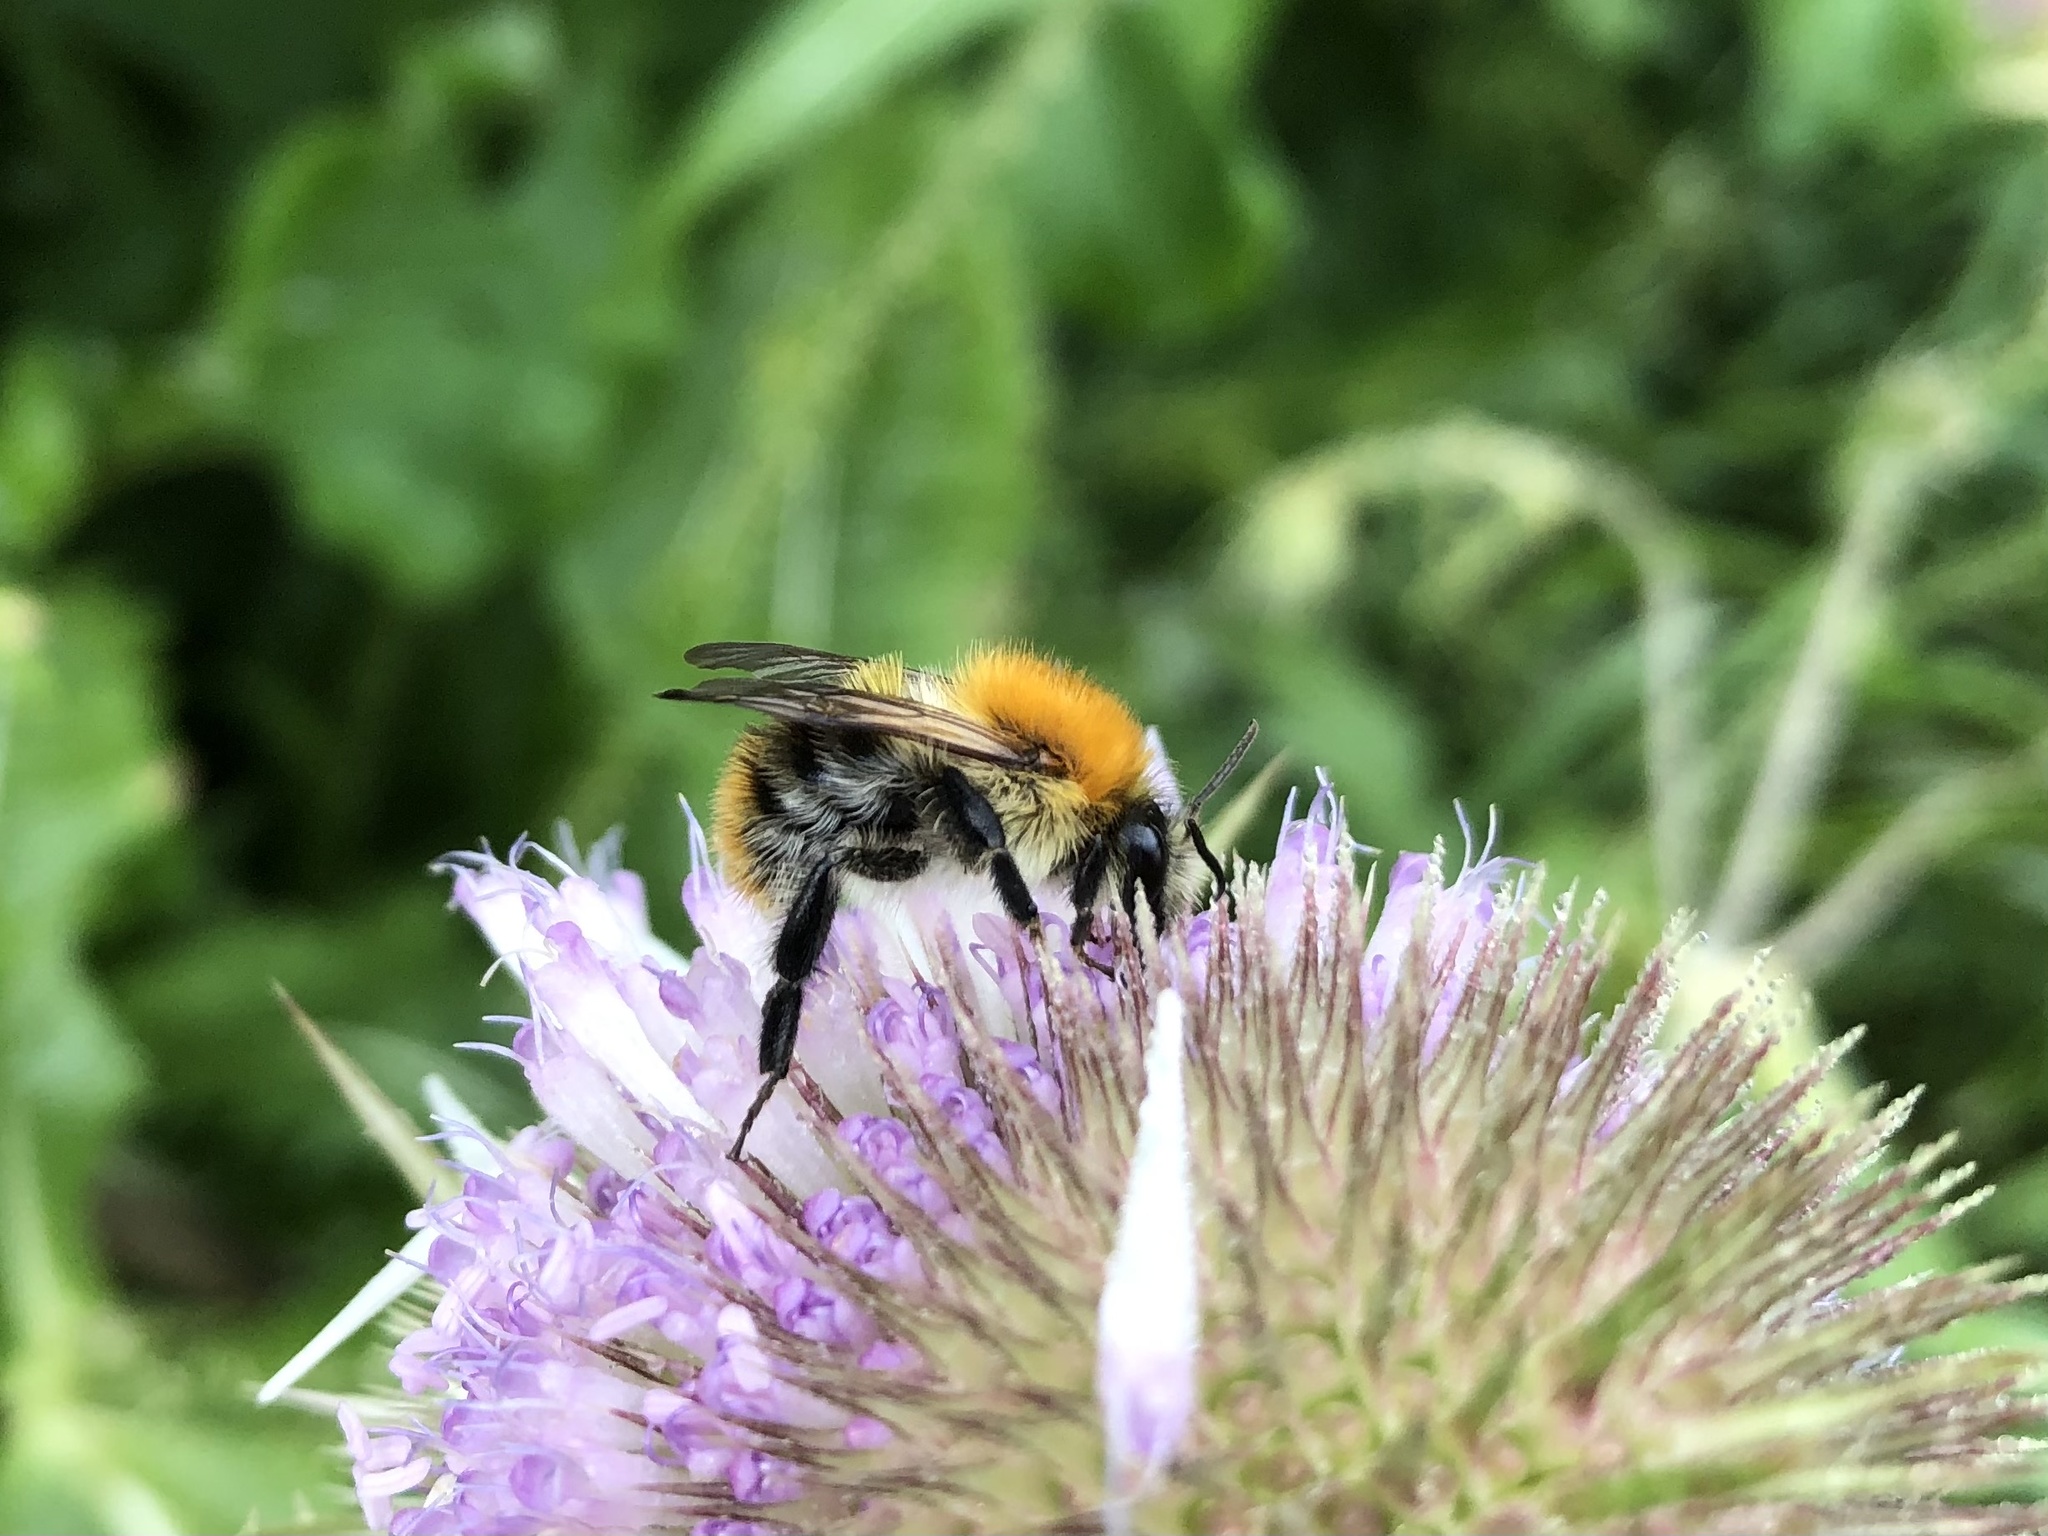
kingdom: Animalia
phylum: Arthropoda
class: Insecta
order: Hymenoptera
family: Apidae
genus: Bombus
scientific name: Bombus pascuorum
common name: Common carder bee
